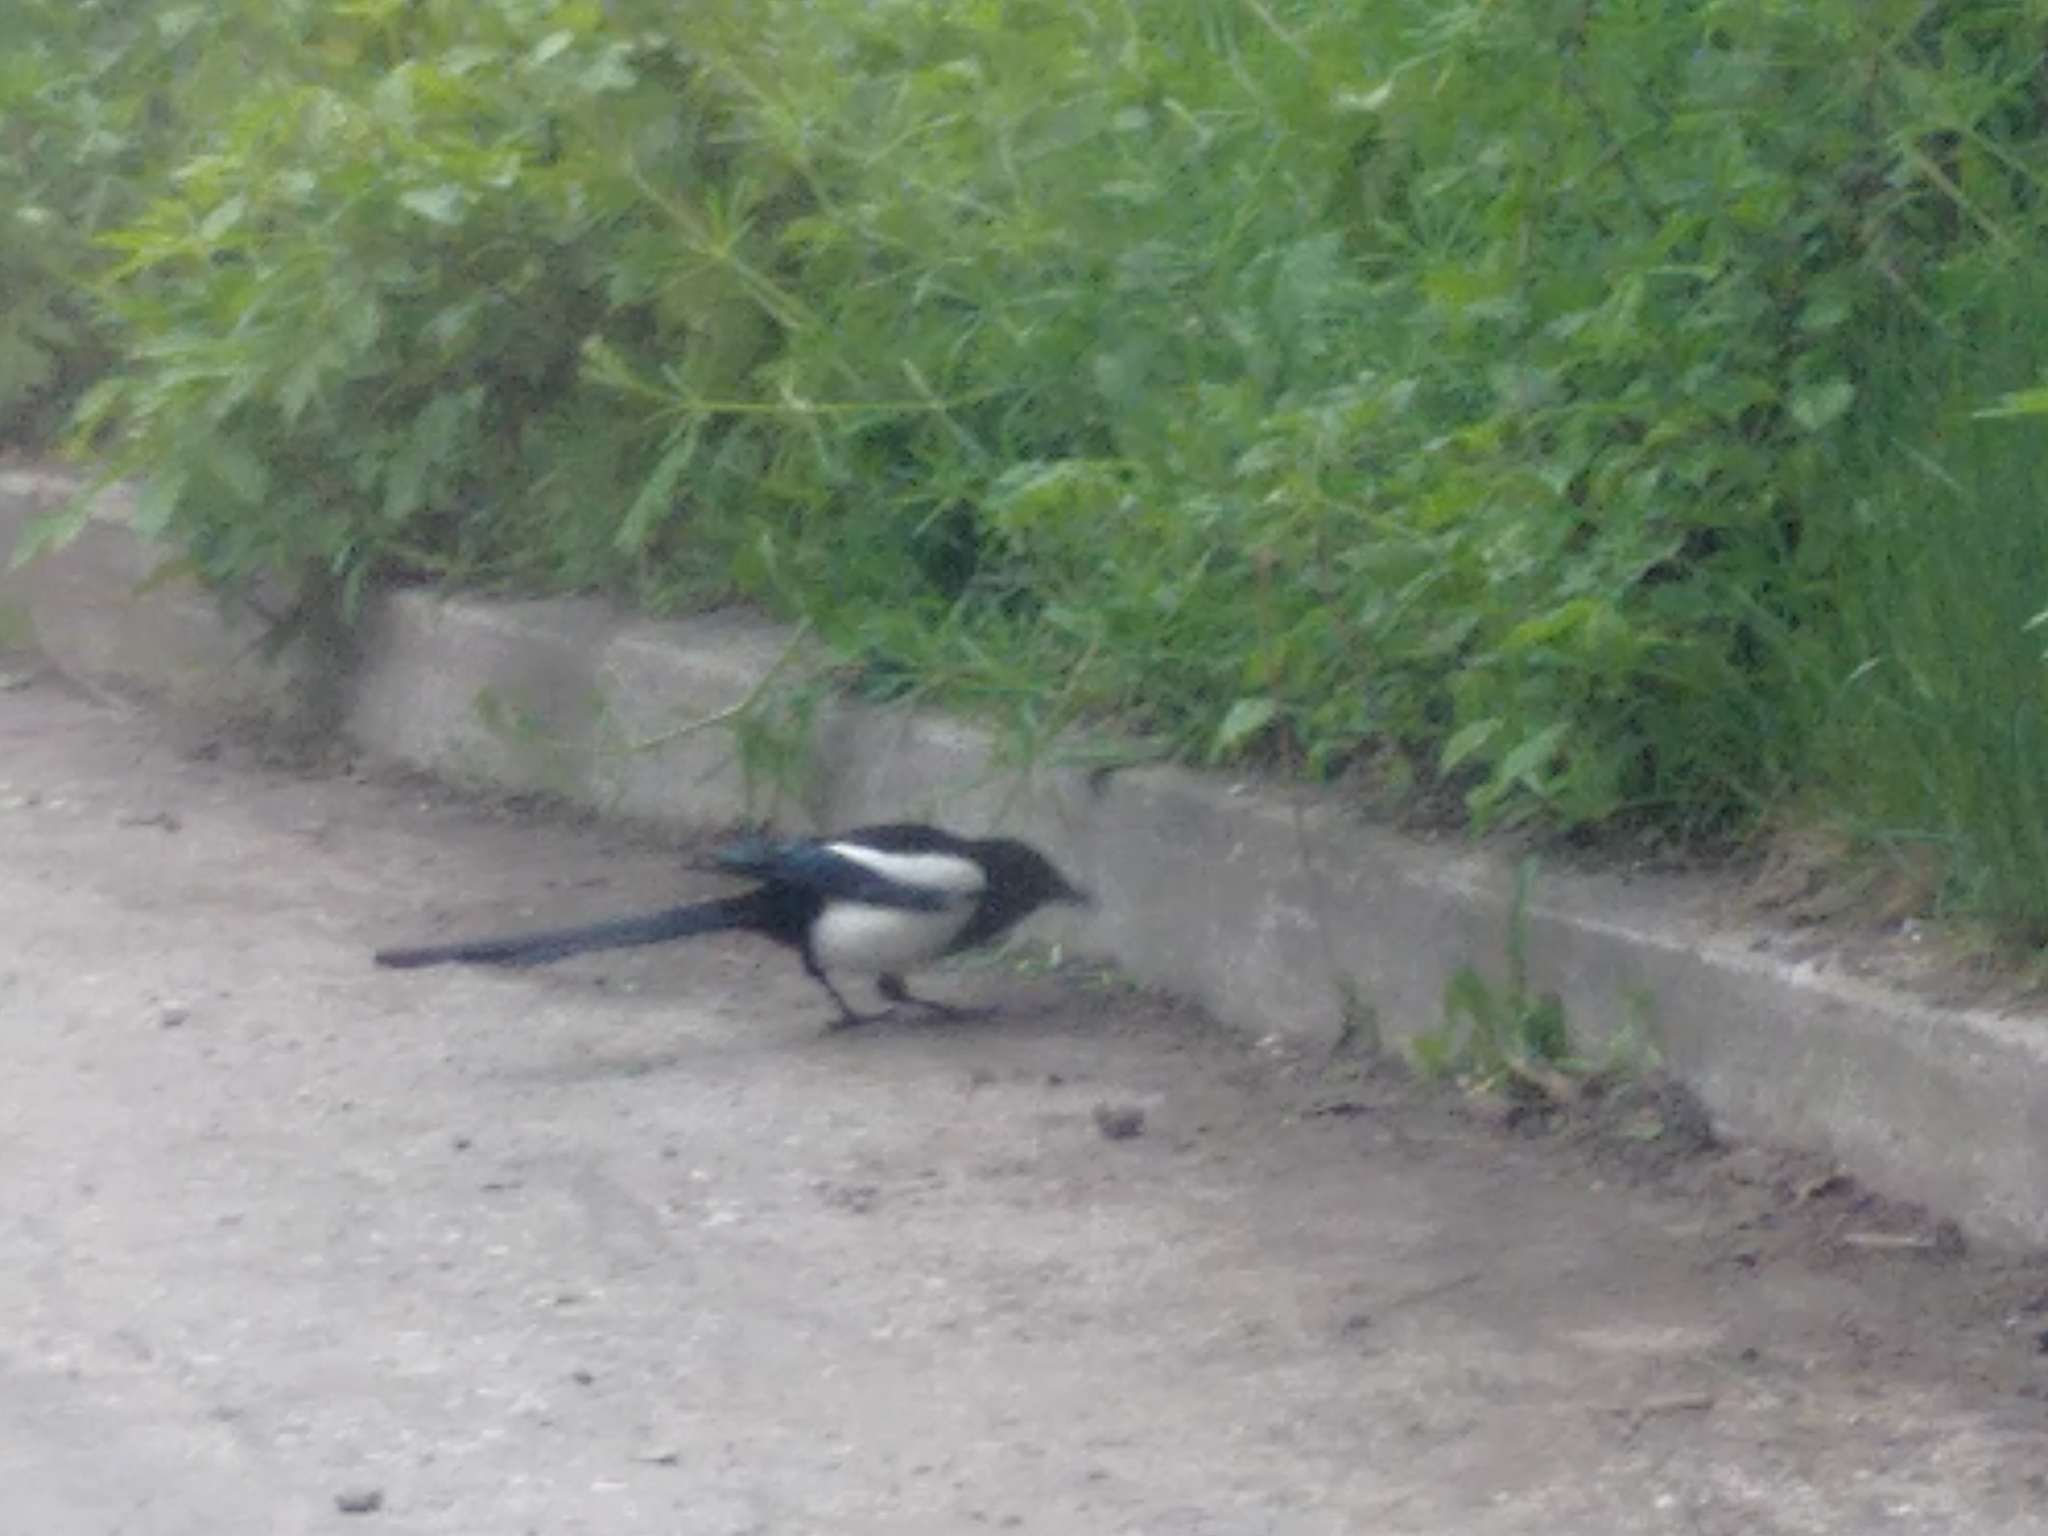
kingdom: Animalia
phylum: Chordata
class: Aves
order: Passeriformes
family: Corvidae
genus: Pica
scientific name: Pica pica
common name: Eurasian magpie
